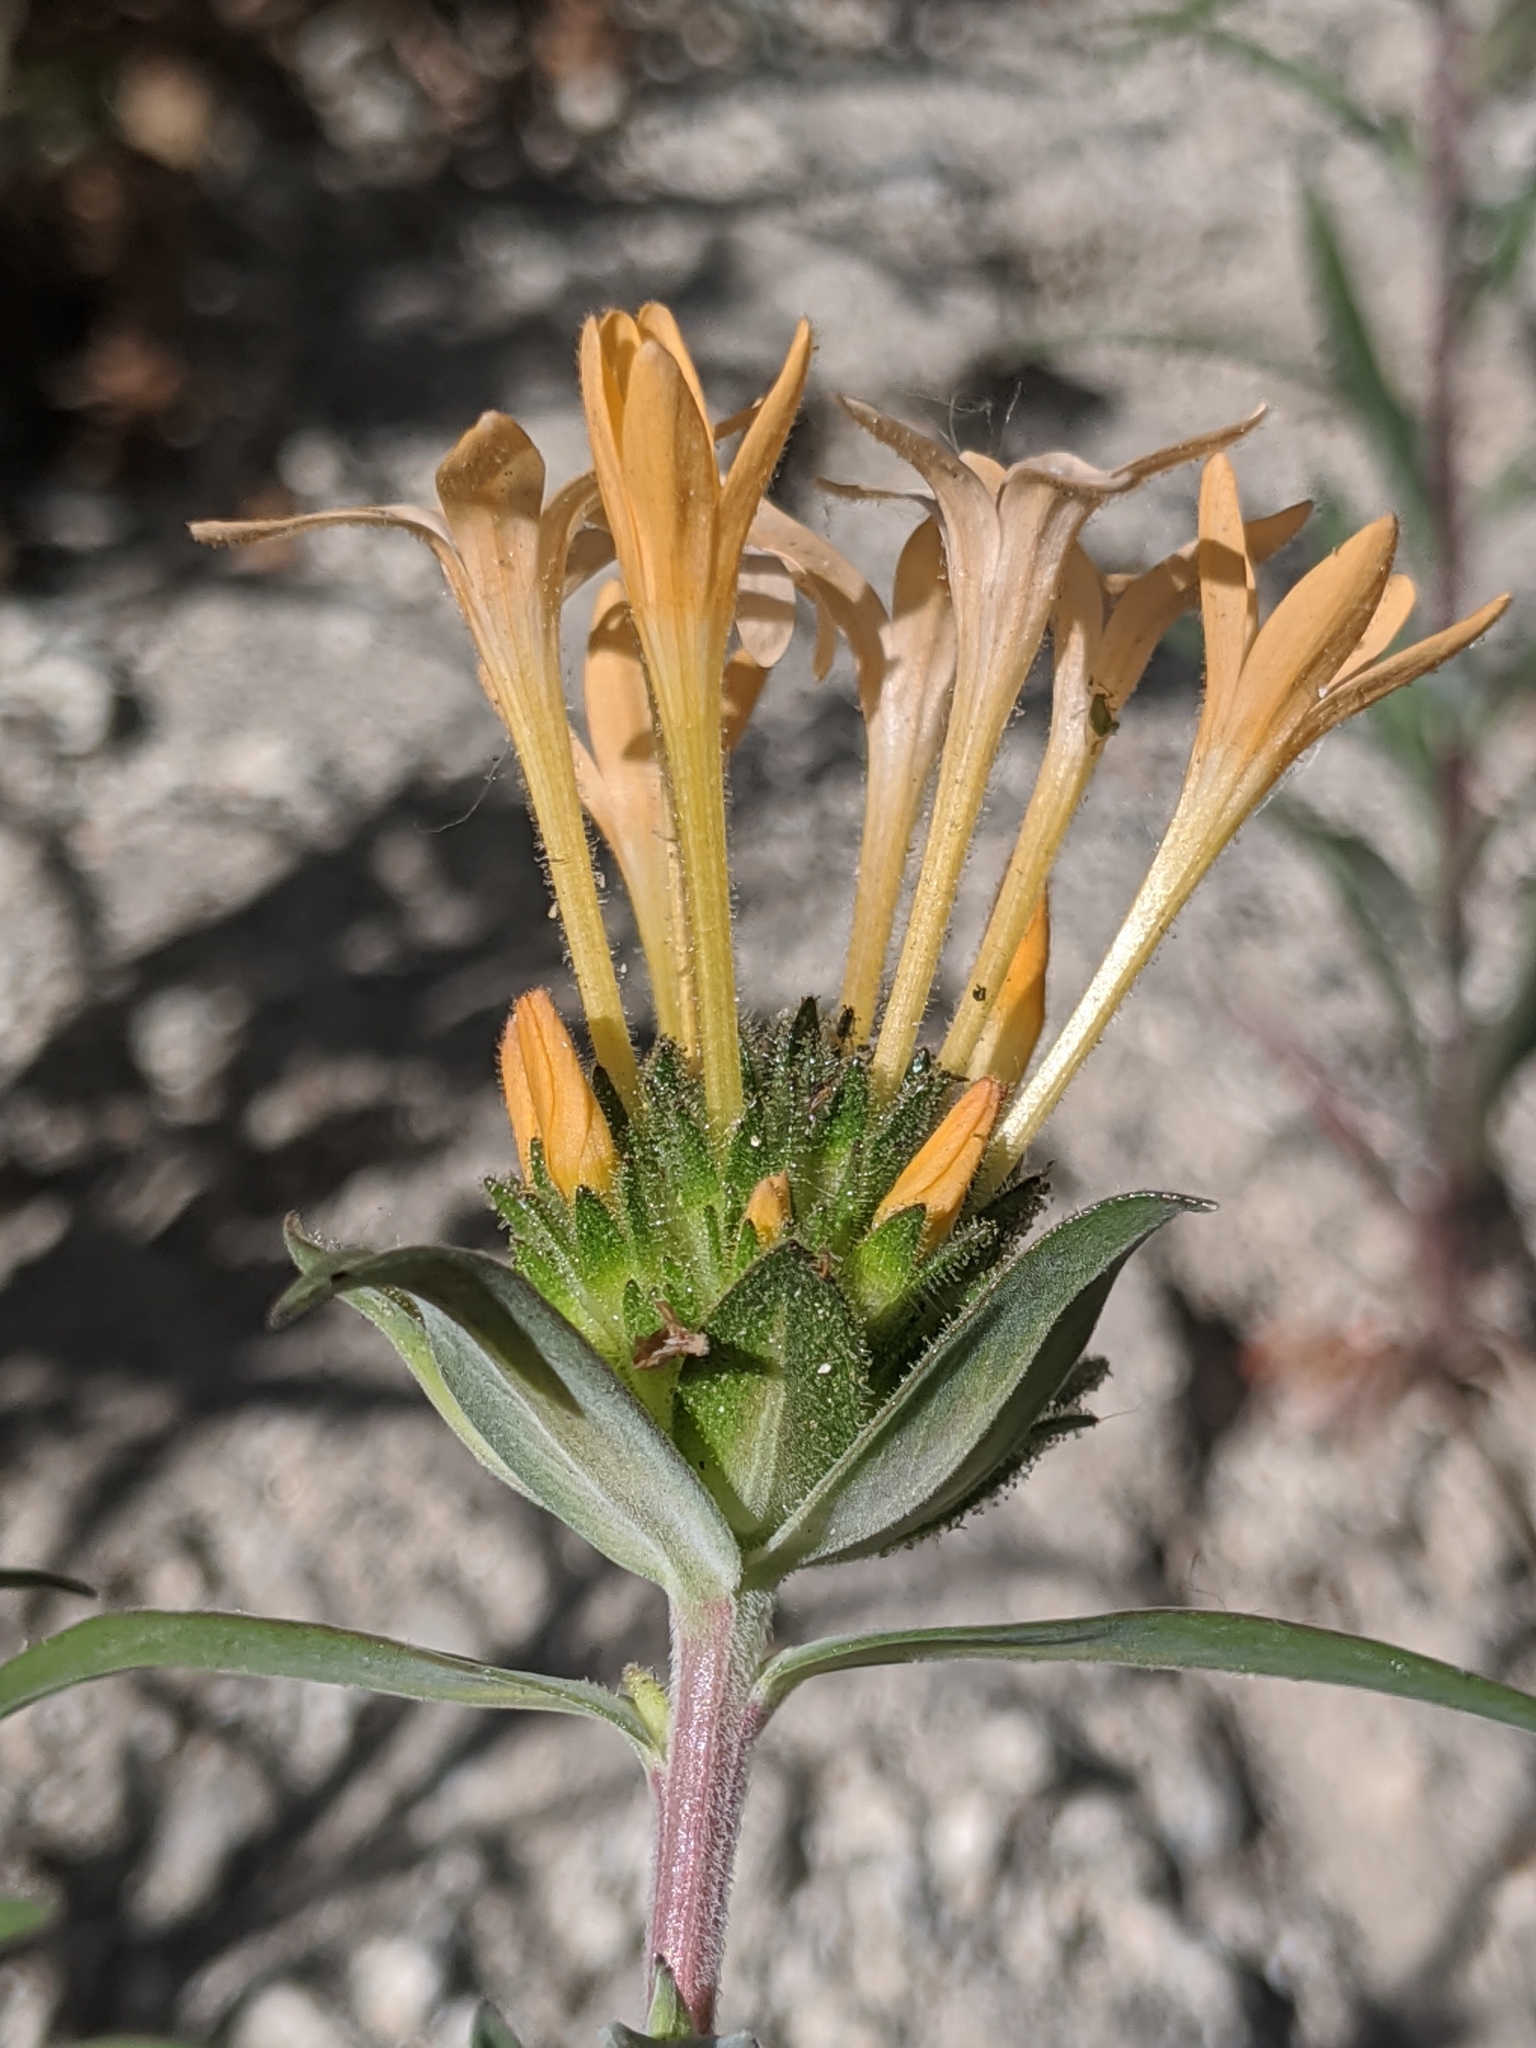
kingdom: Plantae
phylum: Tracheophyta
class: Magnoliopsida
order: Ericales
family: Polemoniaceae
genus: Collomia
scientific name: Collomia grandiflora
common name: California strawflower
